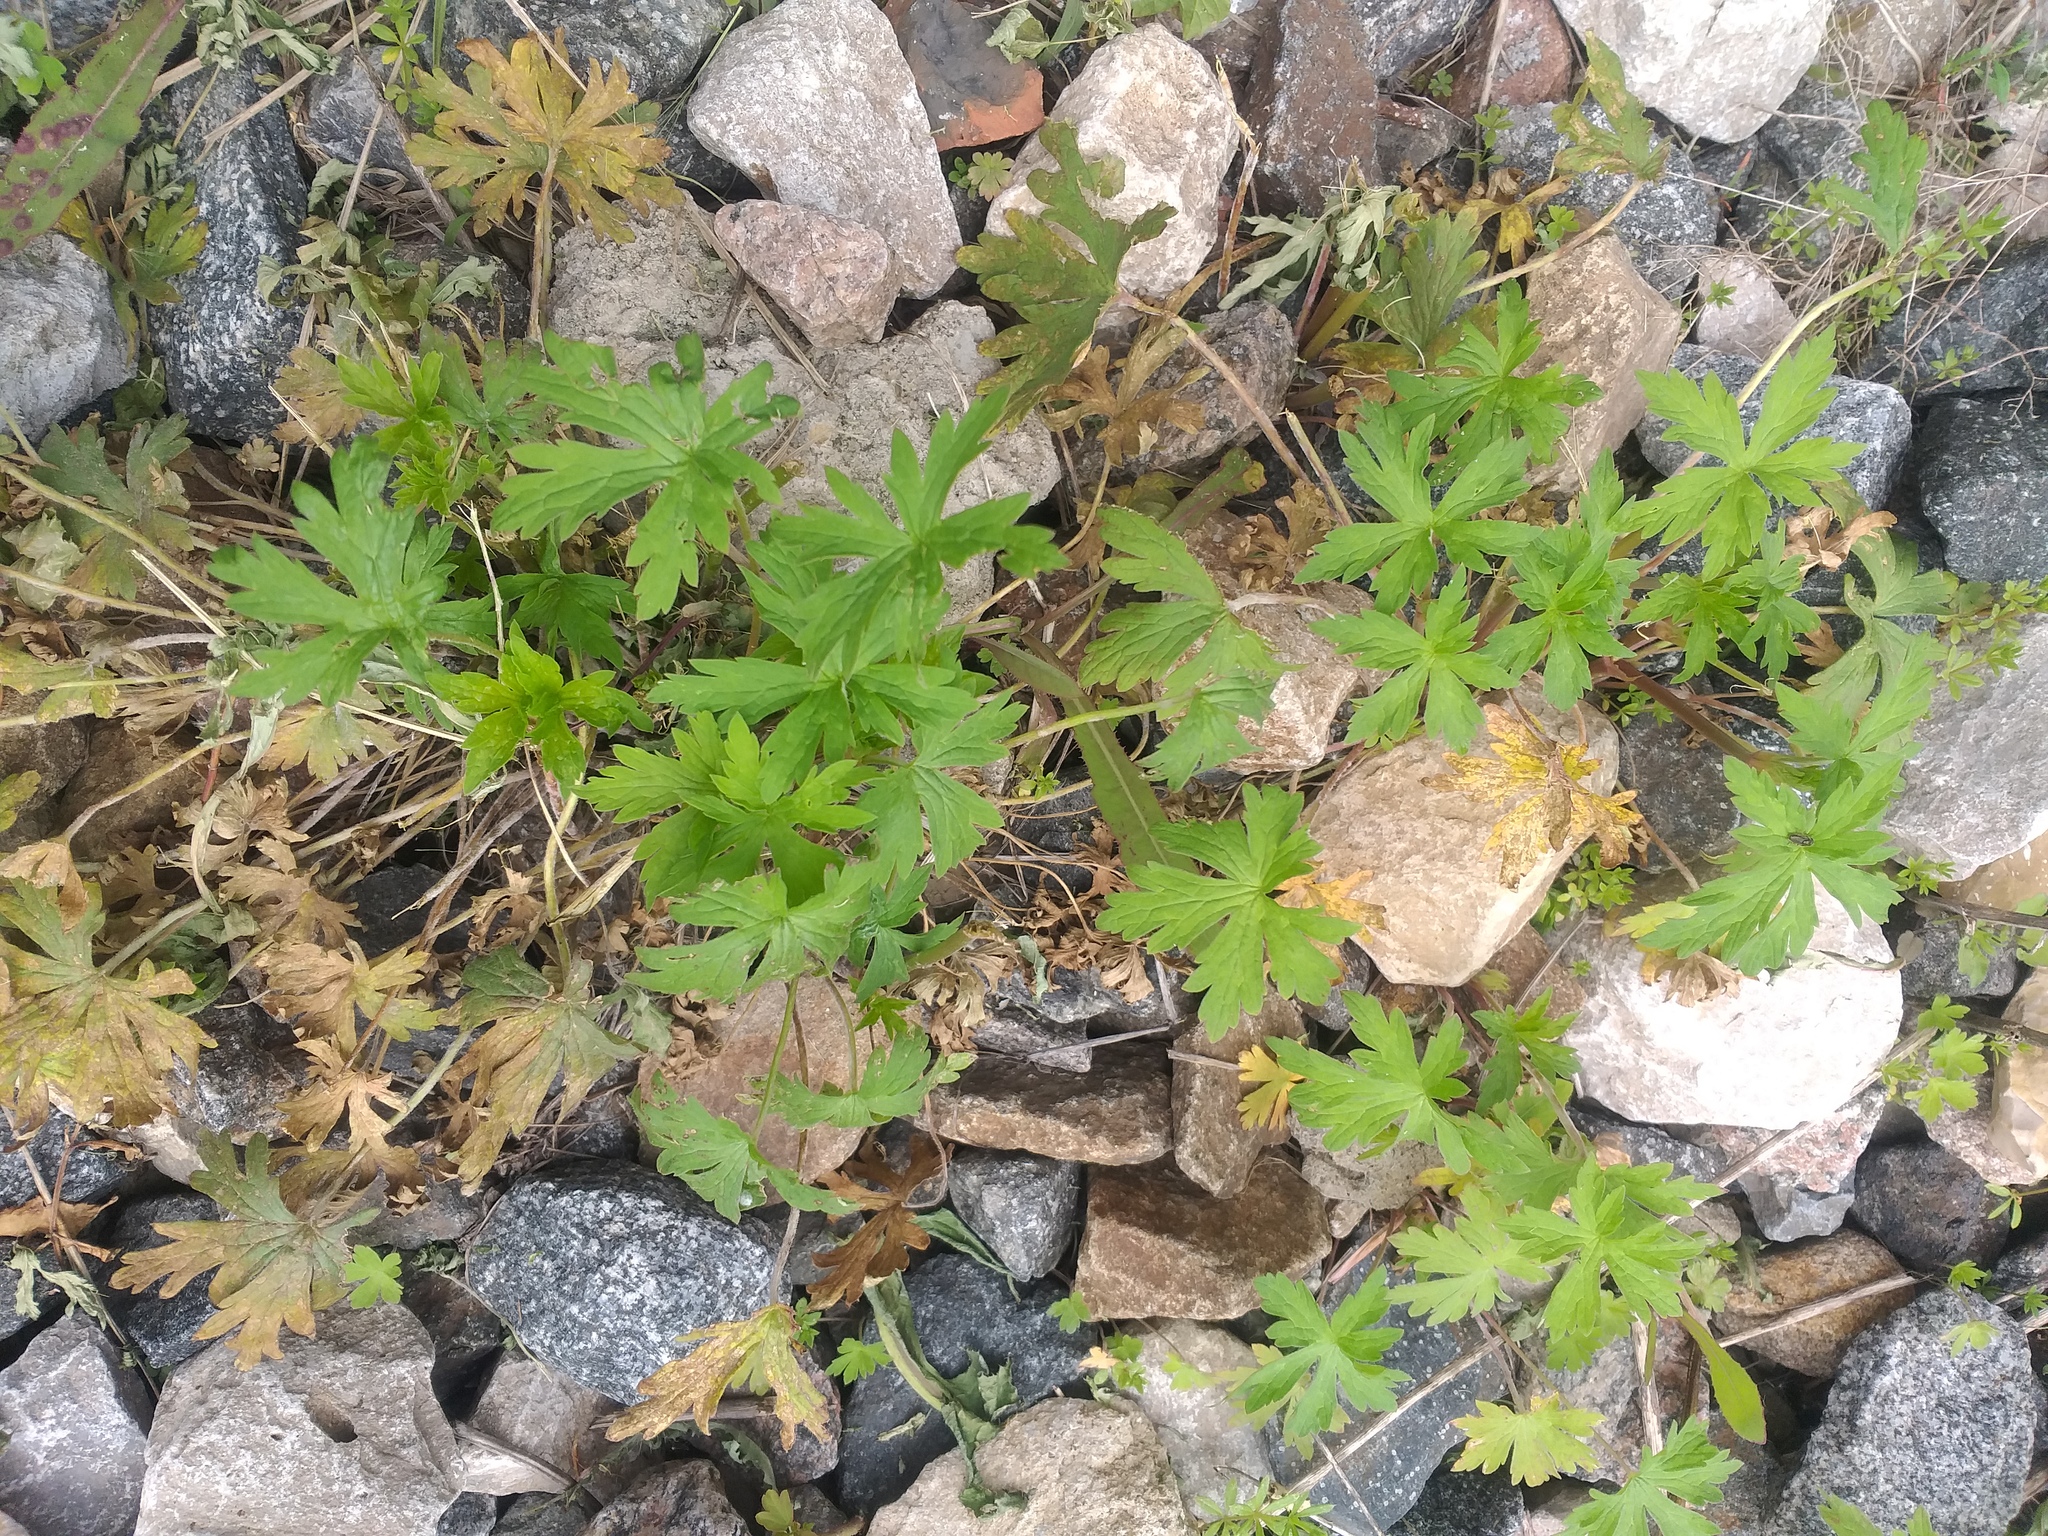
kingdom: Plantae
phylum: Tracheophyta
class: Magnoliopsida
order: Geraniales
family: Geraniaceae
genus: Geranium
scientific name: Geranium sibiricum
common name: Siberian crane's-bill
